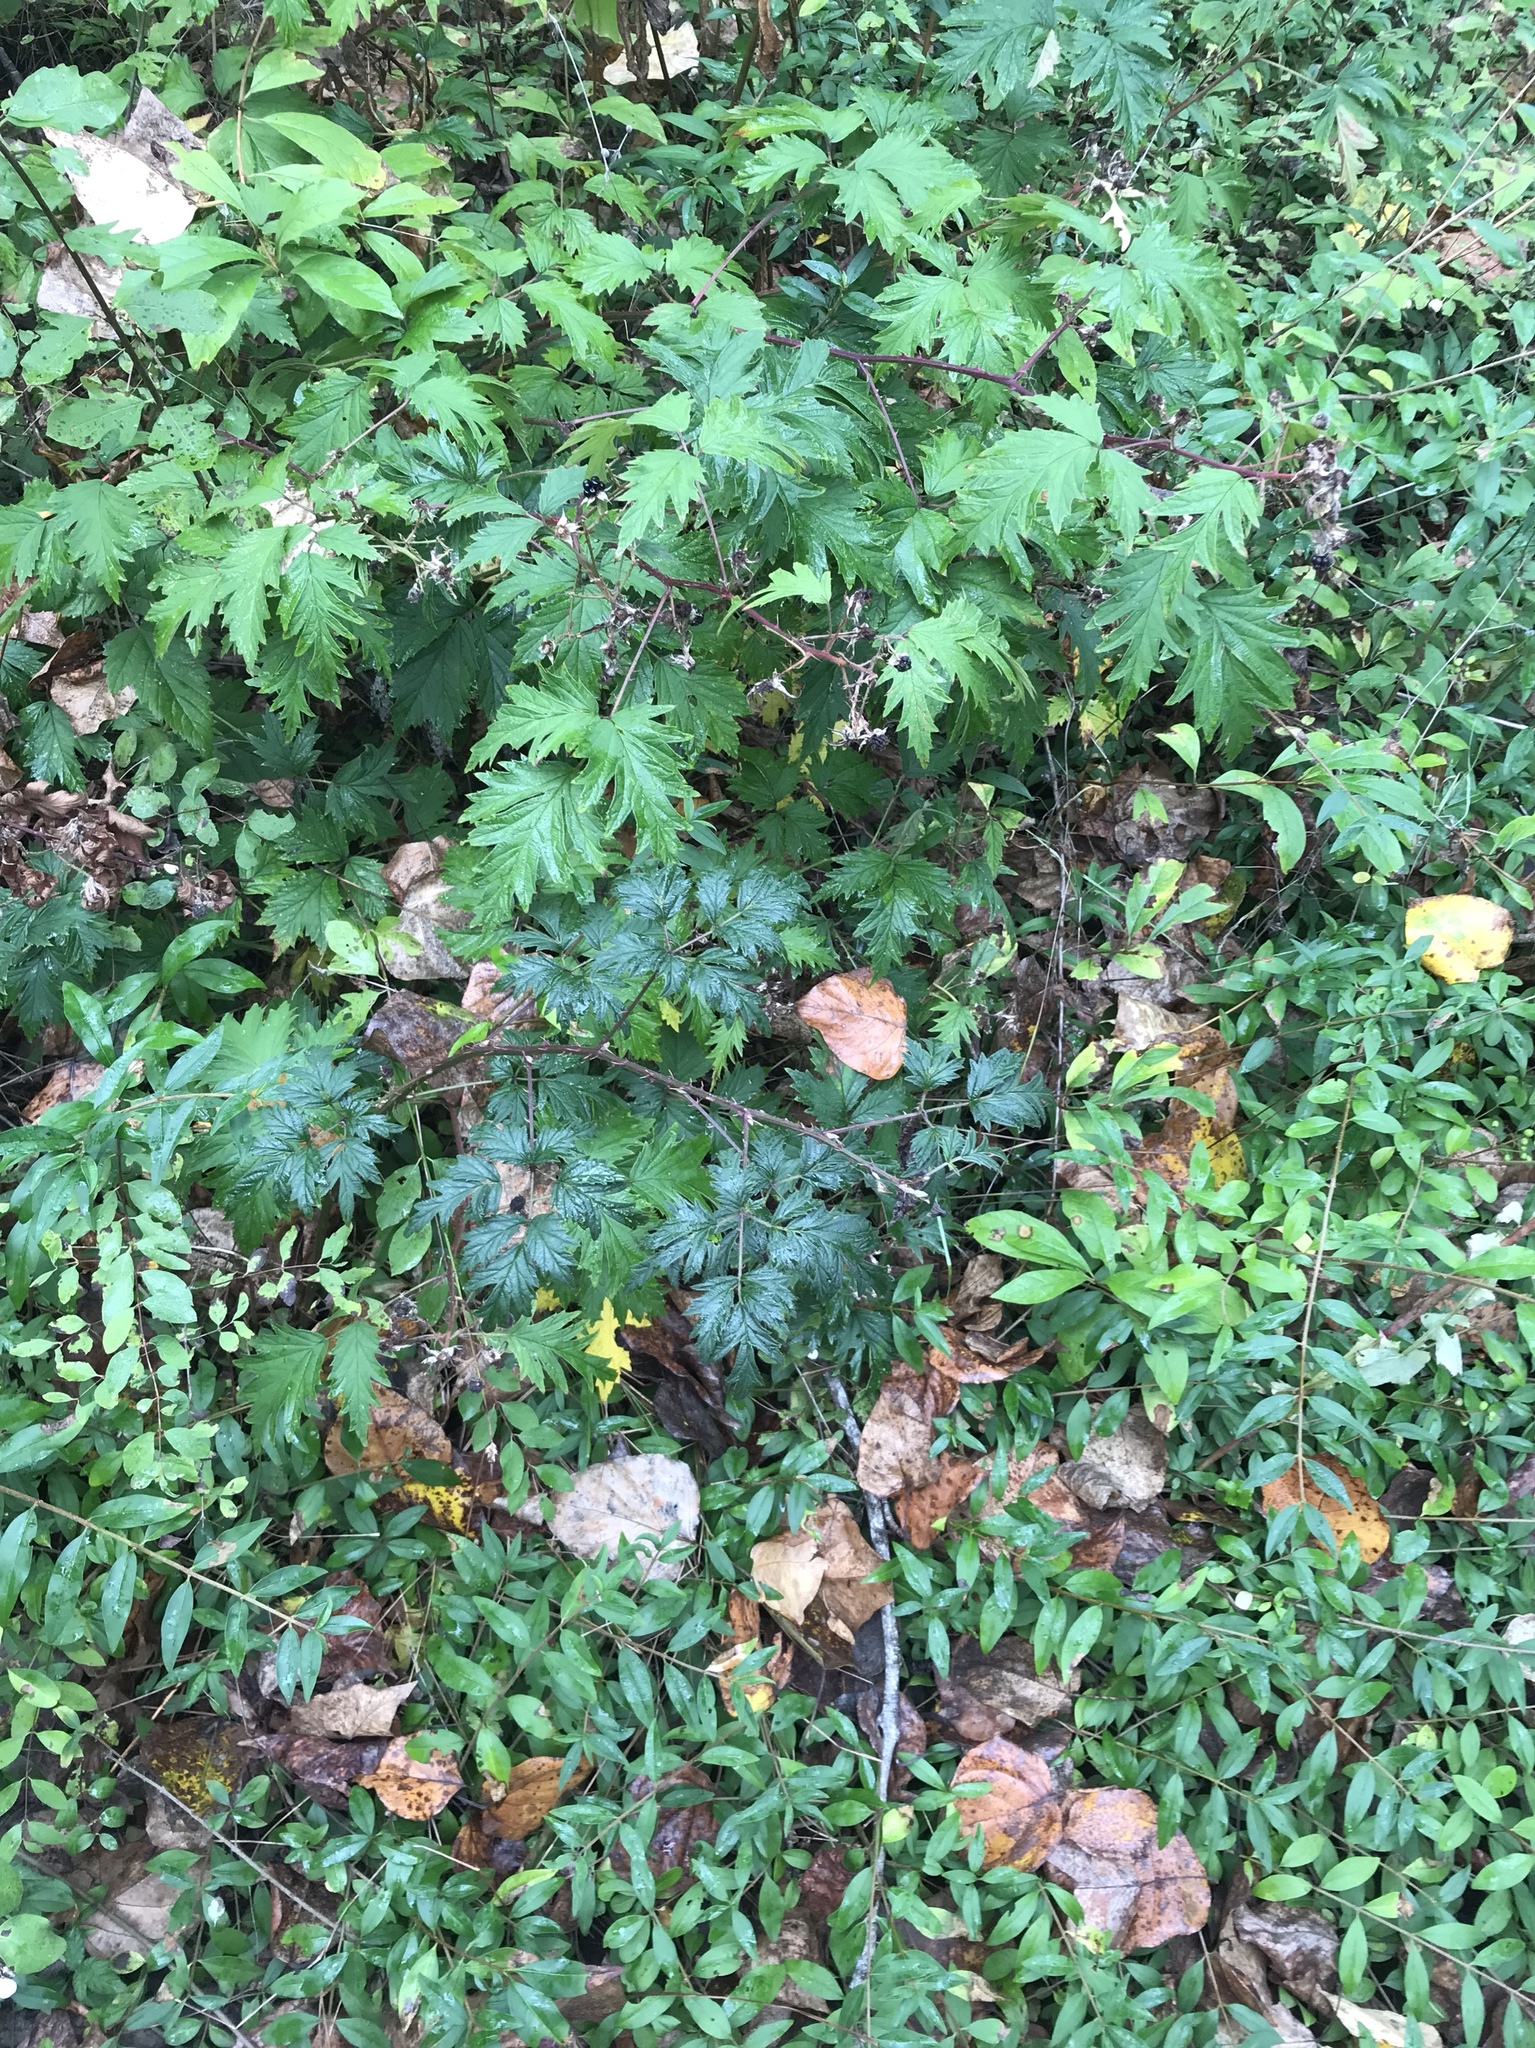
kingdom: Plantae
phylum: Tracheophyta
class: Magnoliopsida
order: Rosales
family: Rosaceae
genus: Rubus
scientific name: Rubus laciniatus
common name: Evergreen blackberry
